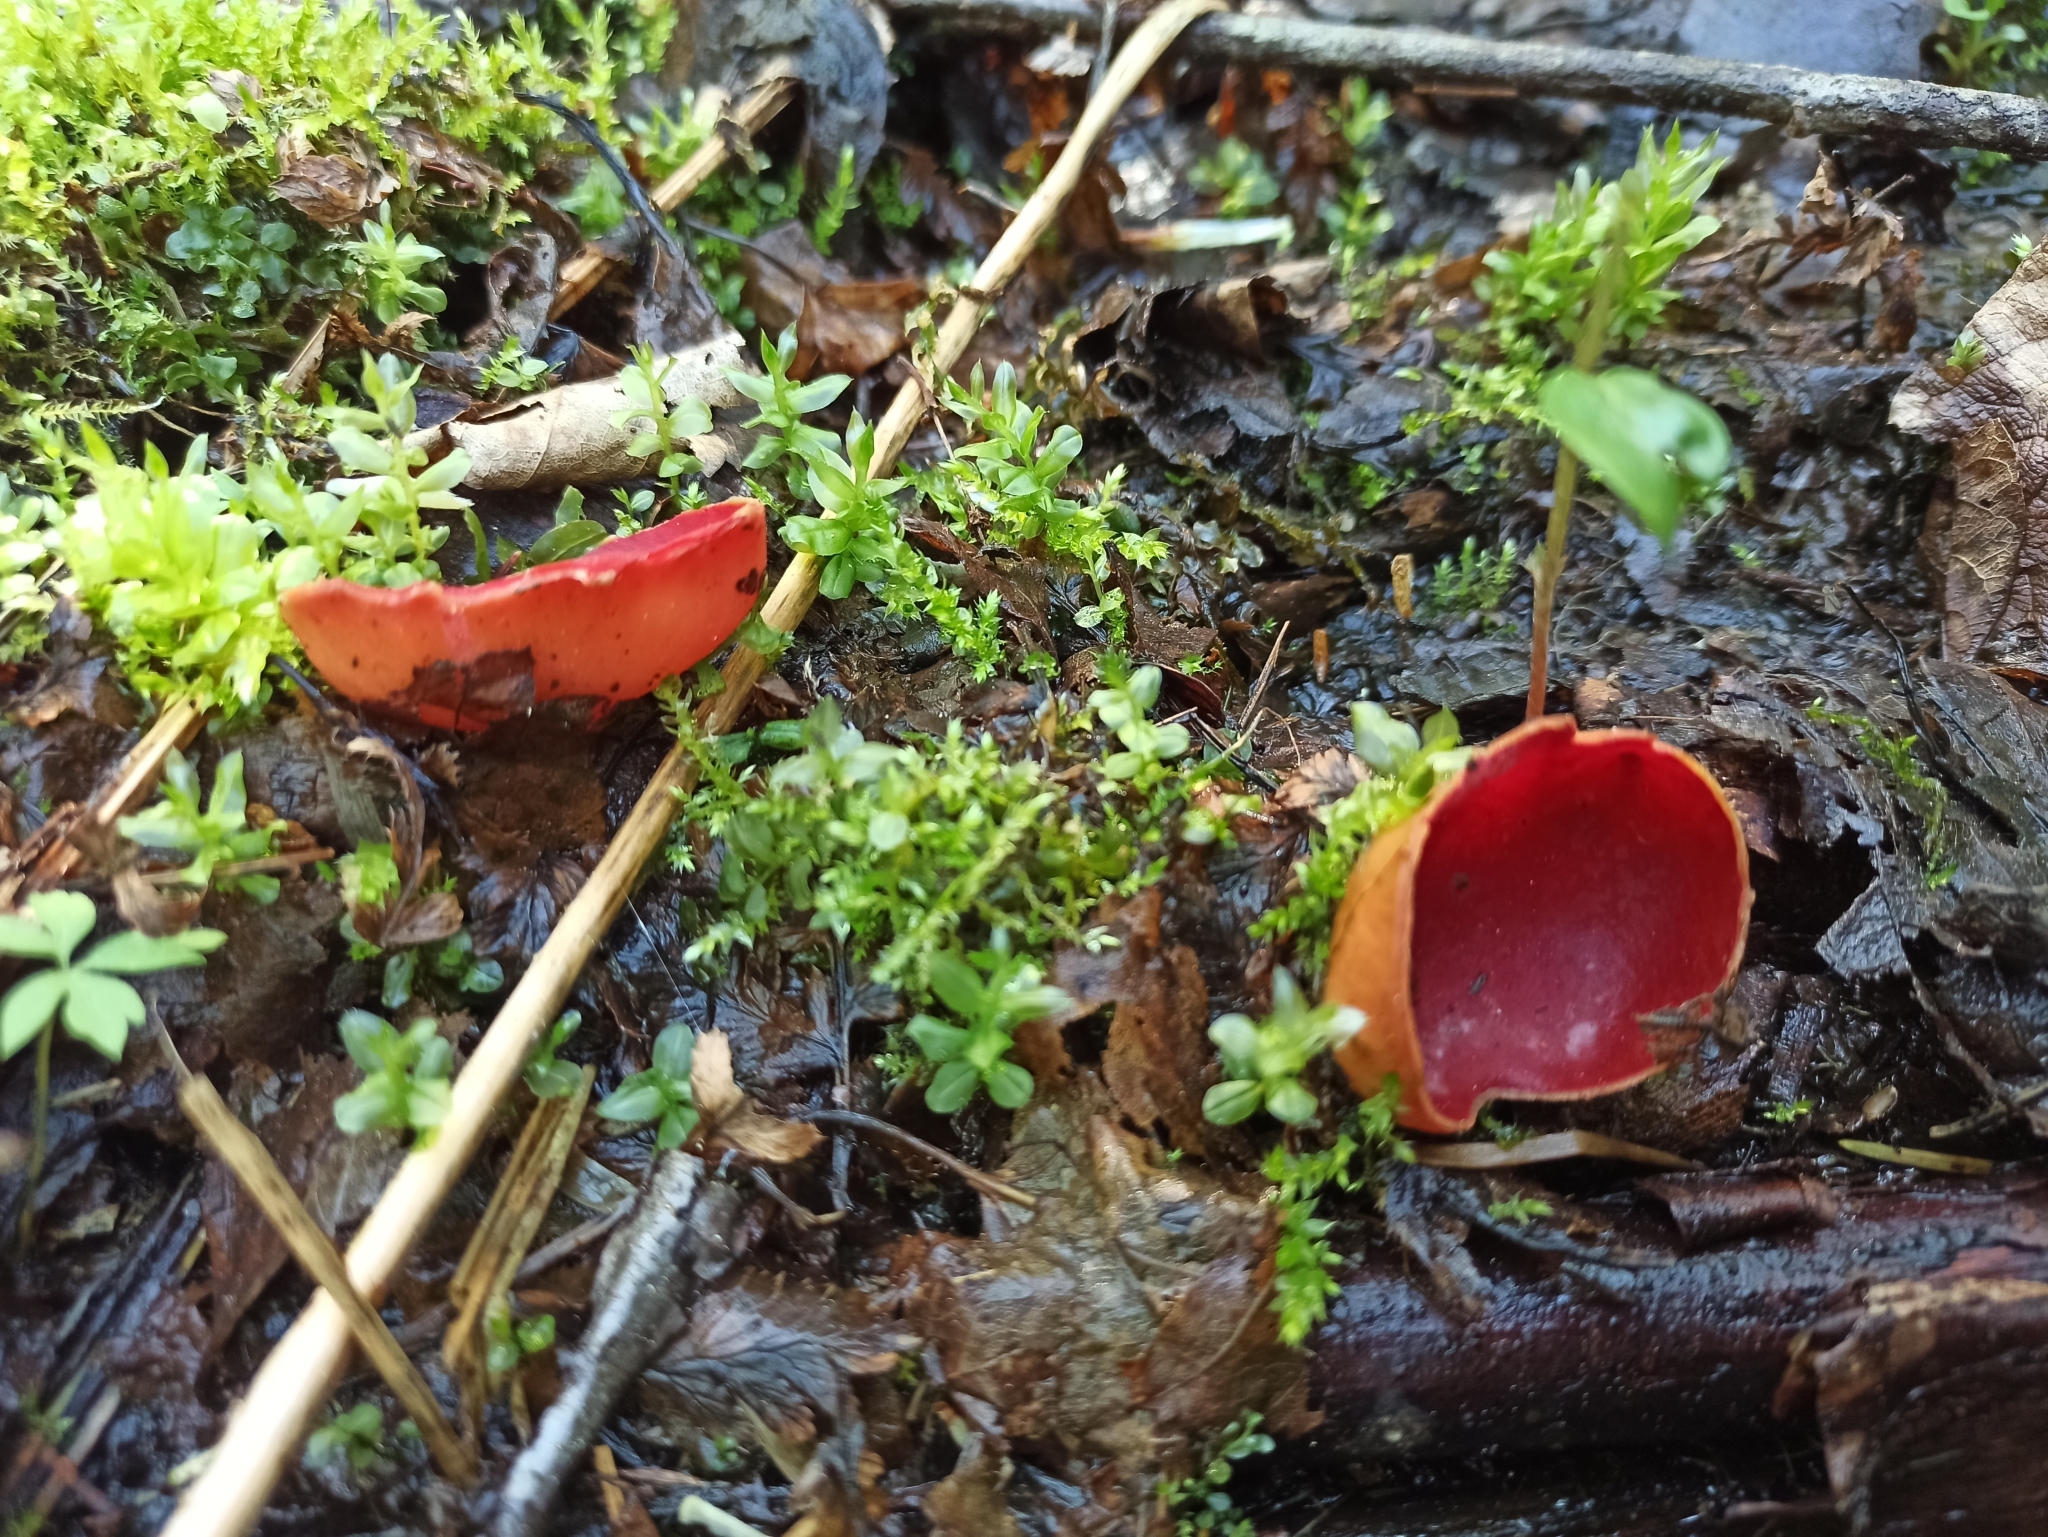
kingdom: Fungi
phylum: Ascomycota
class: Pezizomycetes
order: Pezizales
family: Sarcoscyphaceae
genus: Sarcoscypha
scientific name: Sarcoscypha austriaca
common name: Scarlet elfcup
